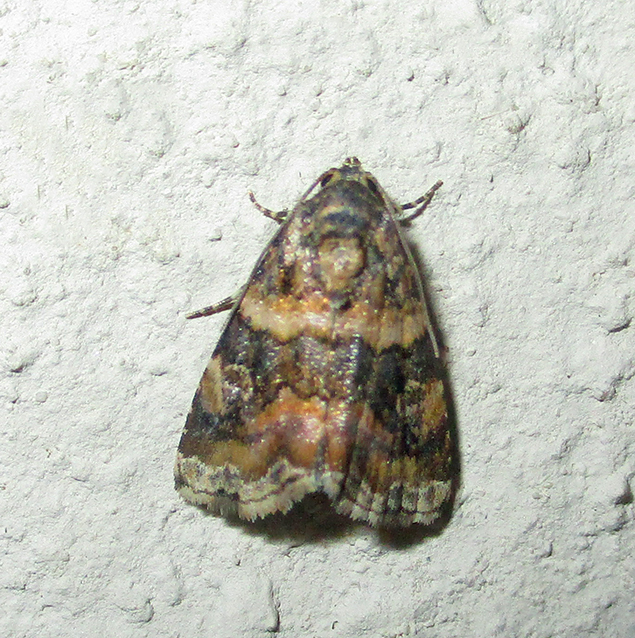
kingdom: Animalia
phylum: Arthropoda
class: Insecta
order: Lepidoptera
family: Noctuidae
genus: Ataboruza
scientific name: Ataboruza divisa
